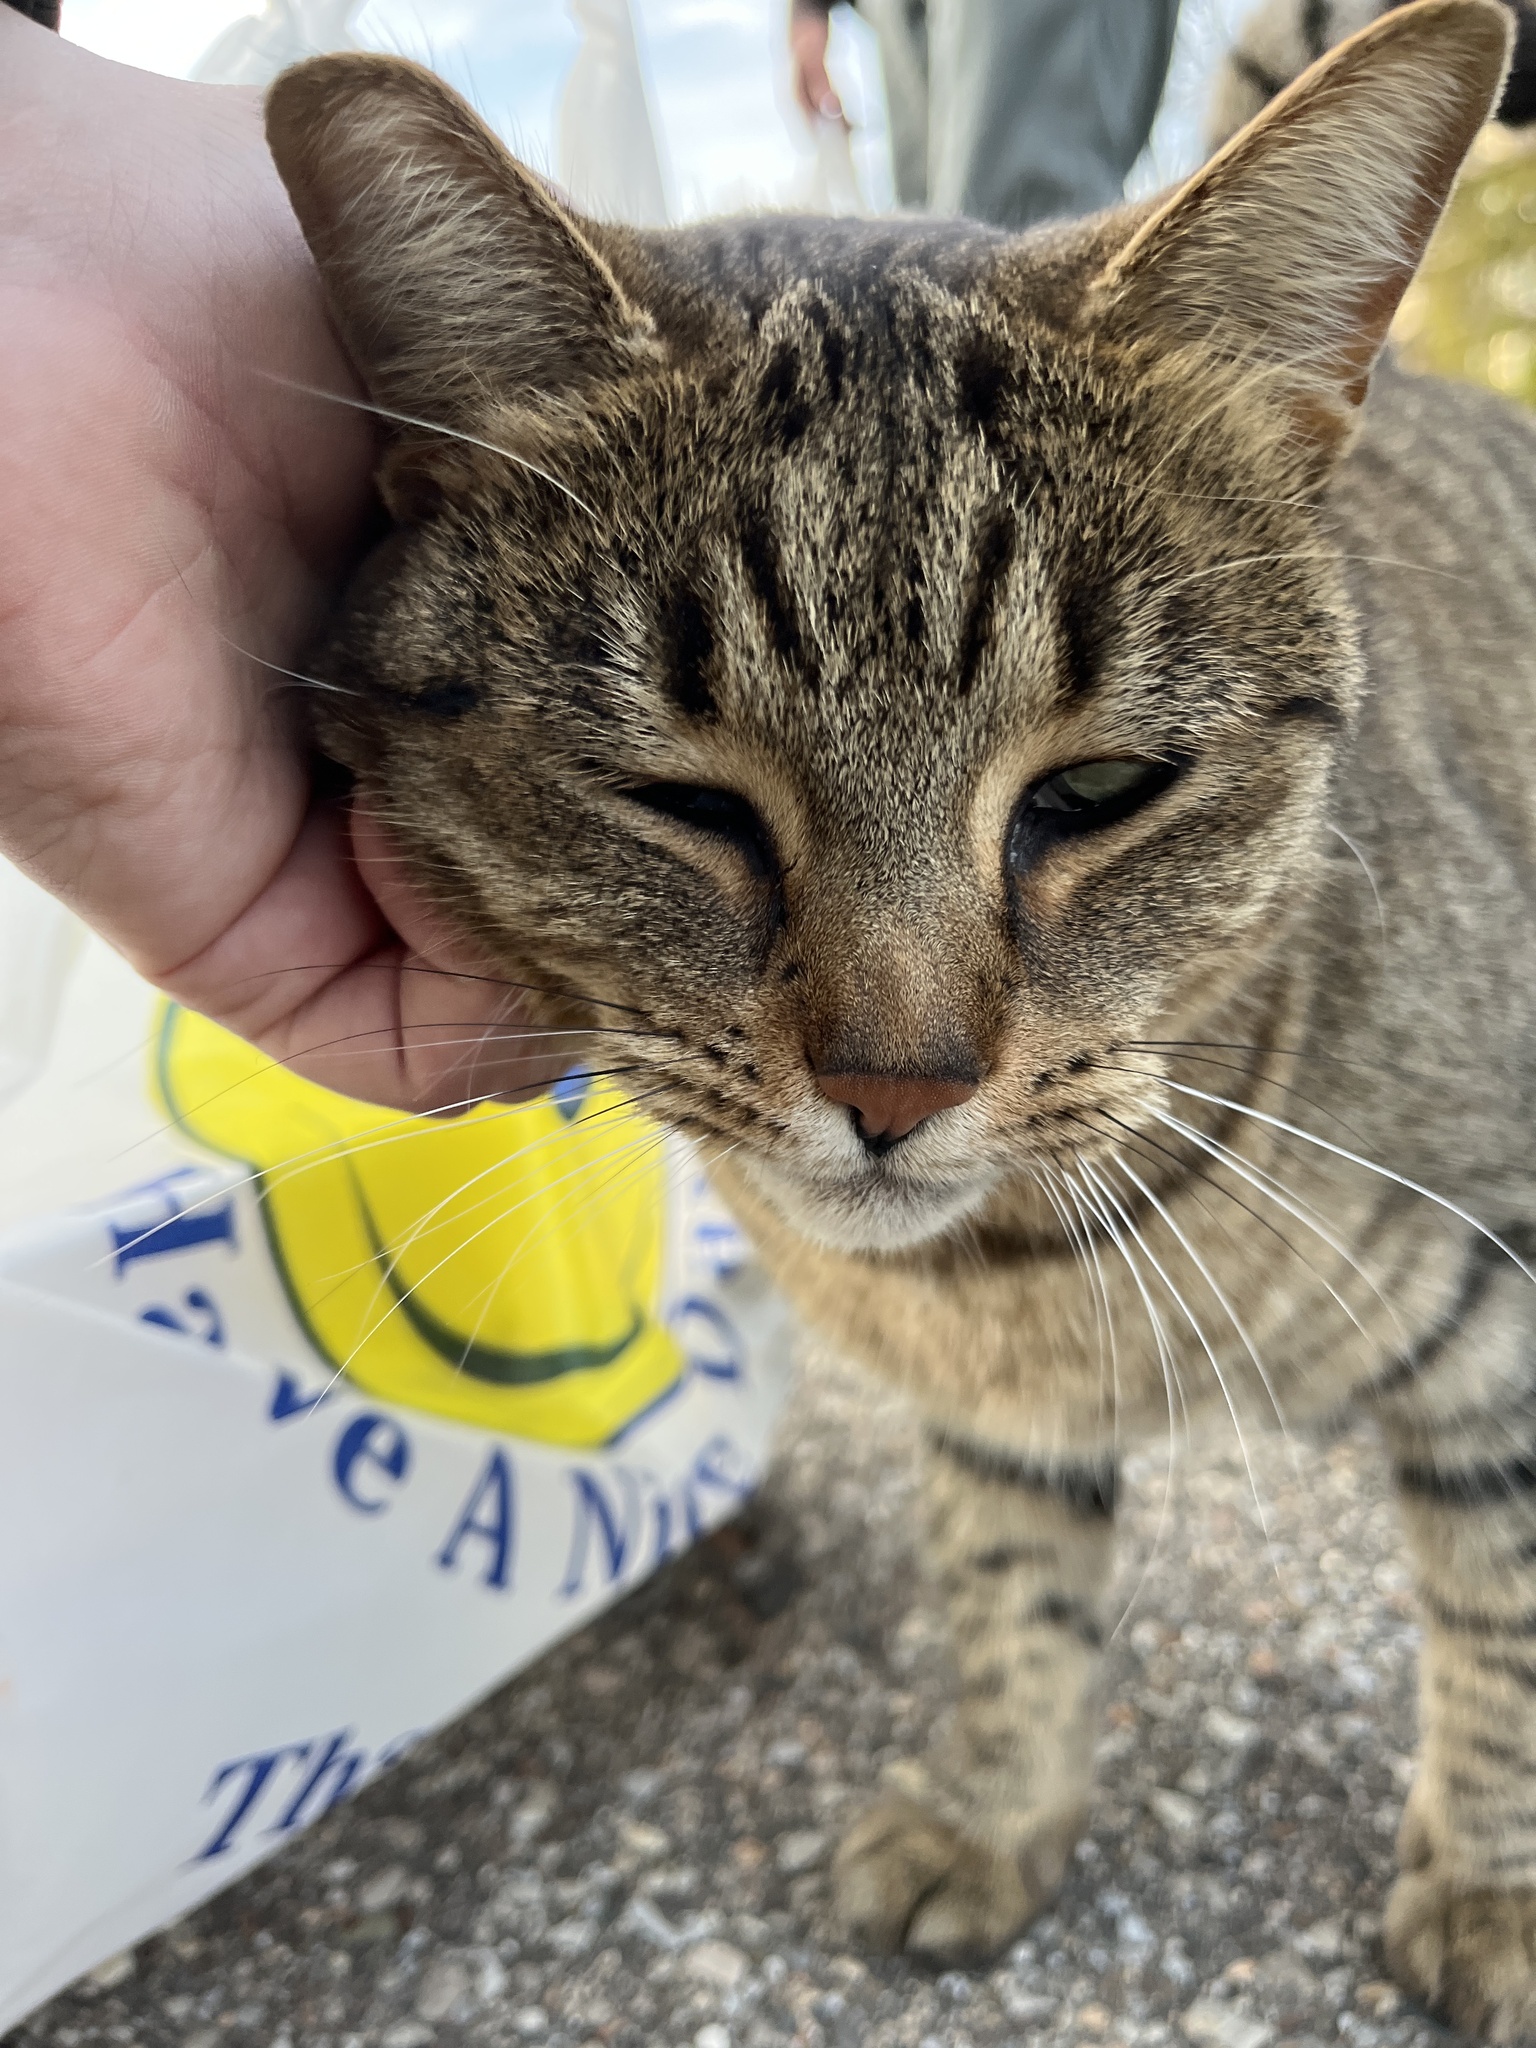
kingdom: Animalia
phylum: Chordata
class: Mammalia
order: Carnivora
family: Felidae
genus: Felis
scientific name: Felis catus
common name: Domestic cat
